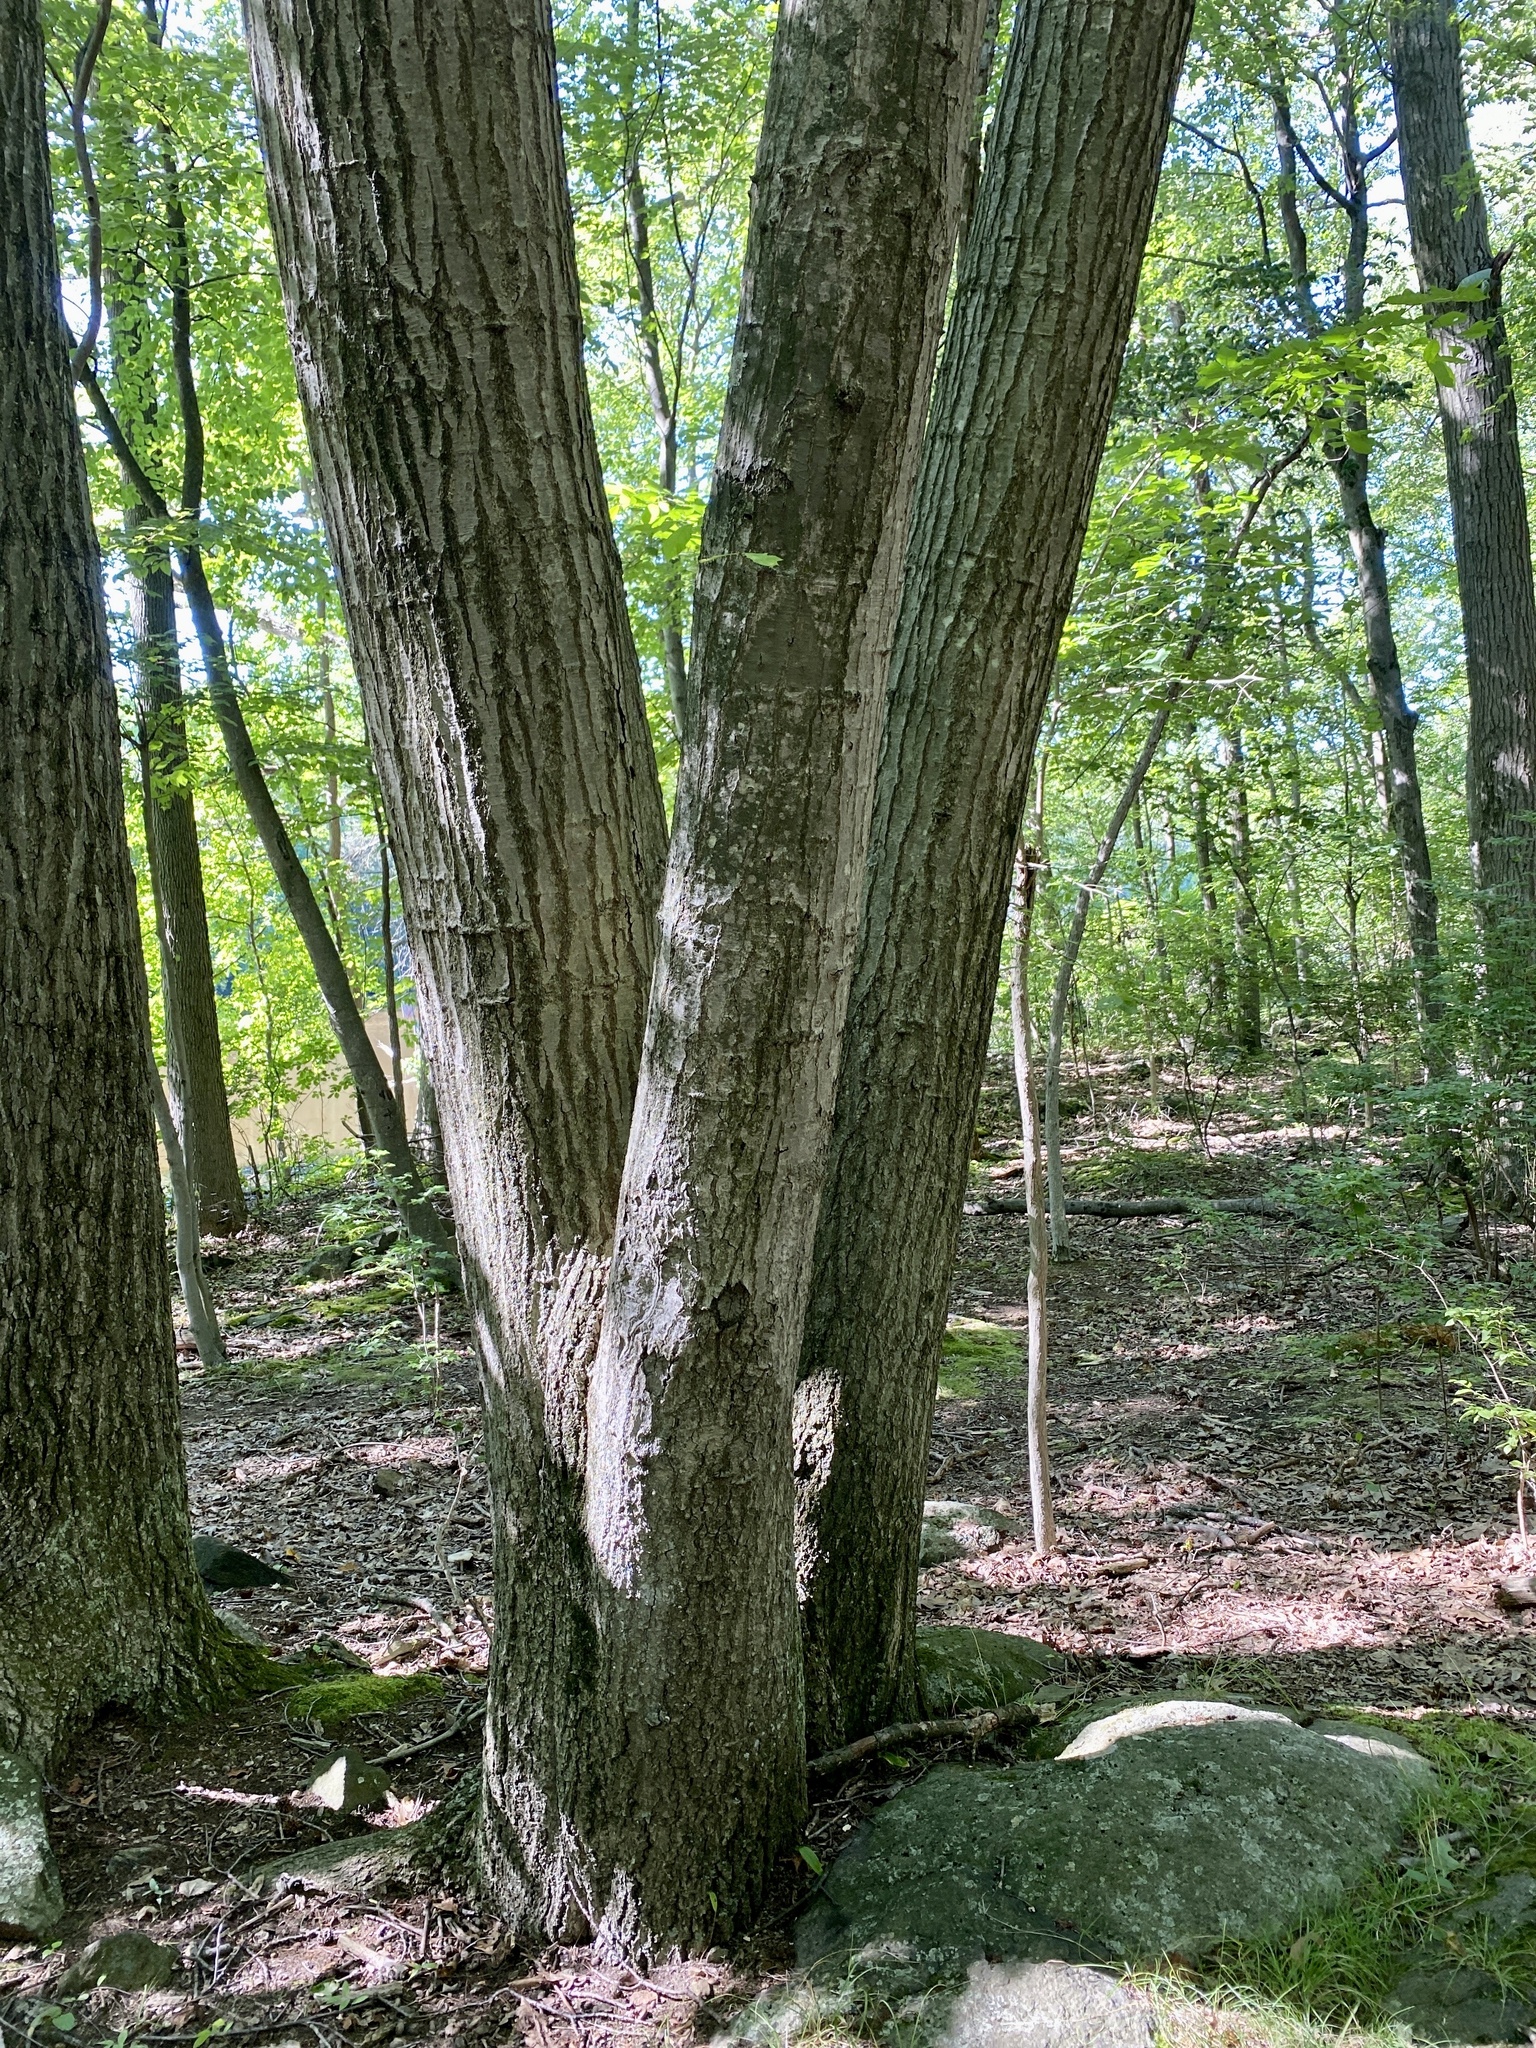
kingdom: Plantae
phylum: Tracheophyta
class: Magnoliopsida
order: Fagales
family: Fagaceae
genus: Quercus
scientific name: Quercus rubra
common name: Red oak
